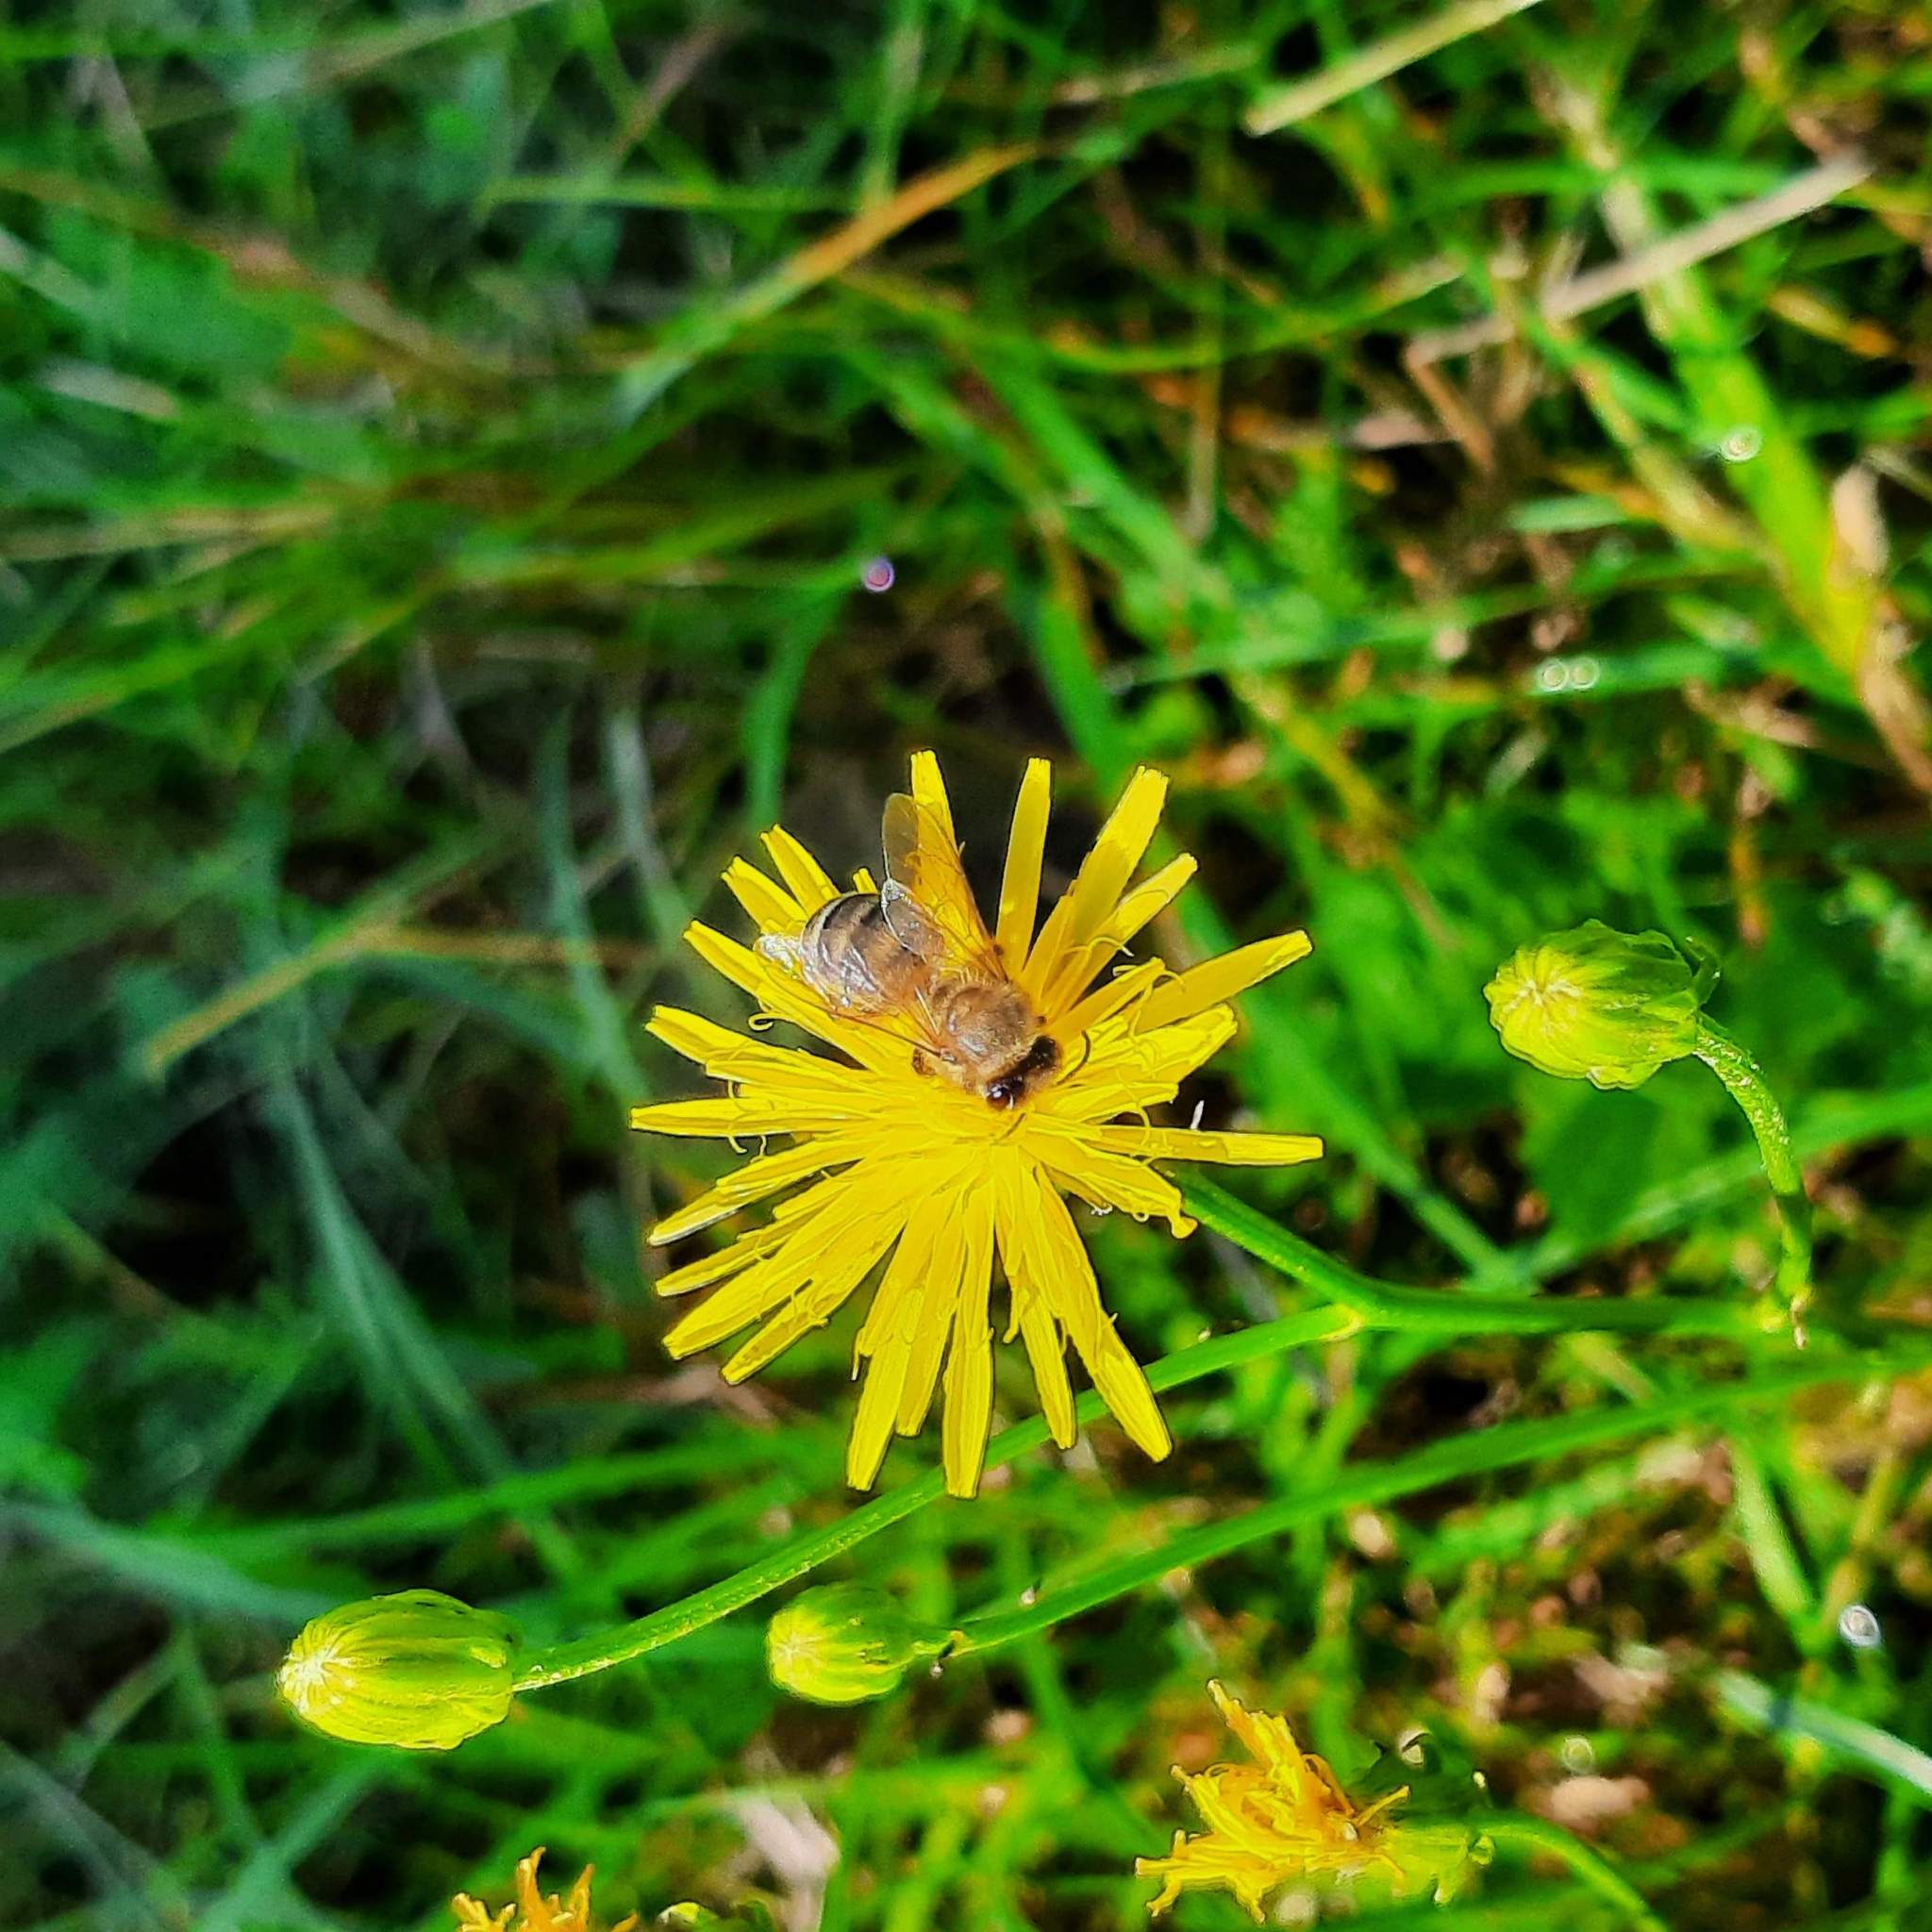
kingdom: Animalia
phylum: Arthropoda
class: Insecta
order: Hymenoptera
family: Apidae
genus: Apis
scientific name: Apis mellifera
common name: Honey bee
